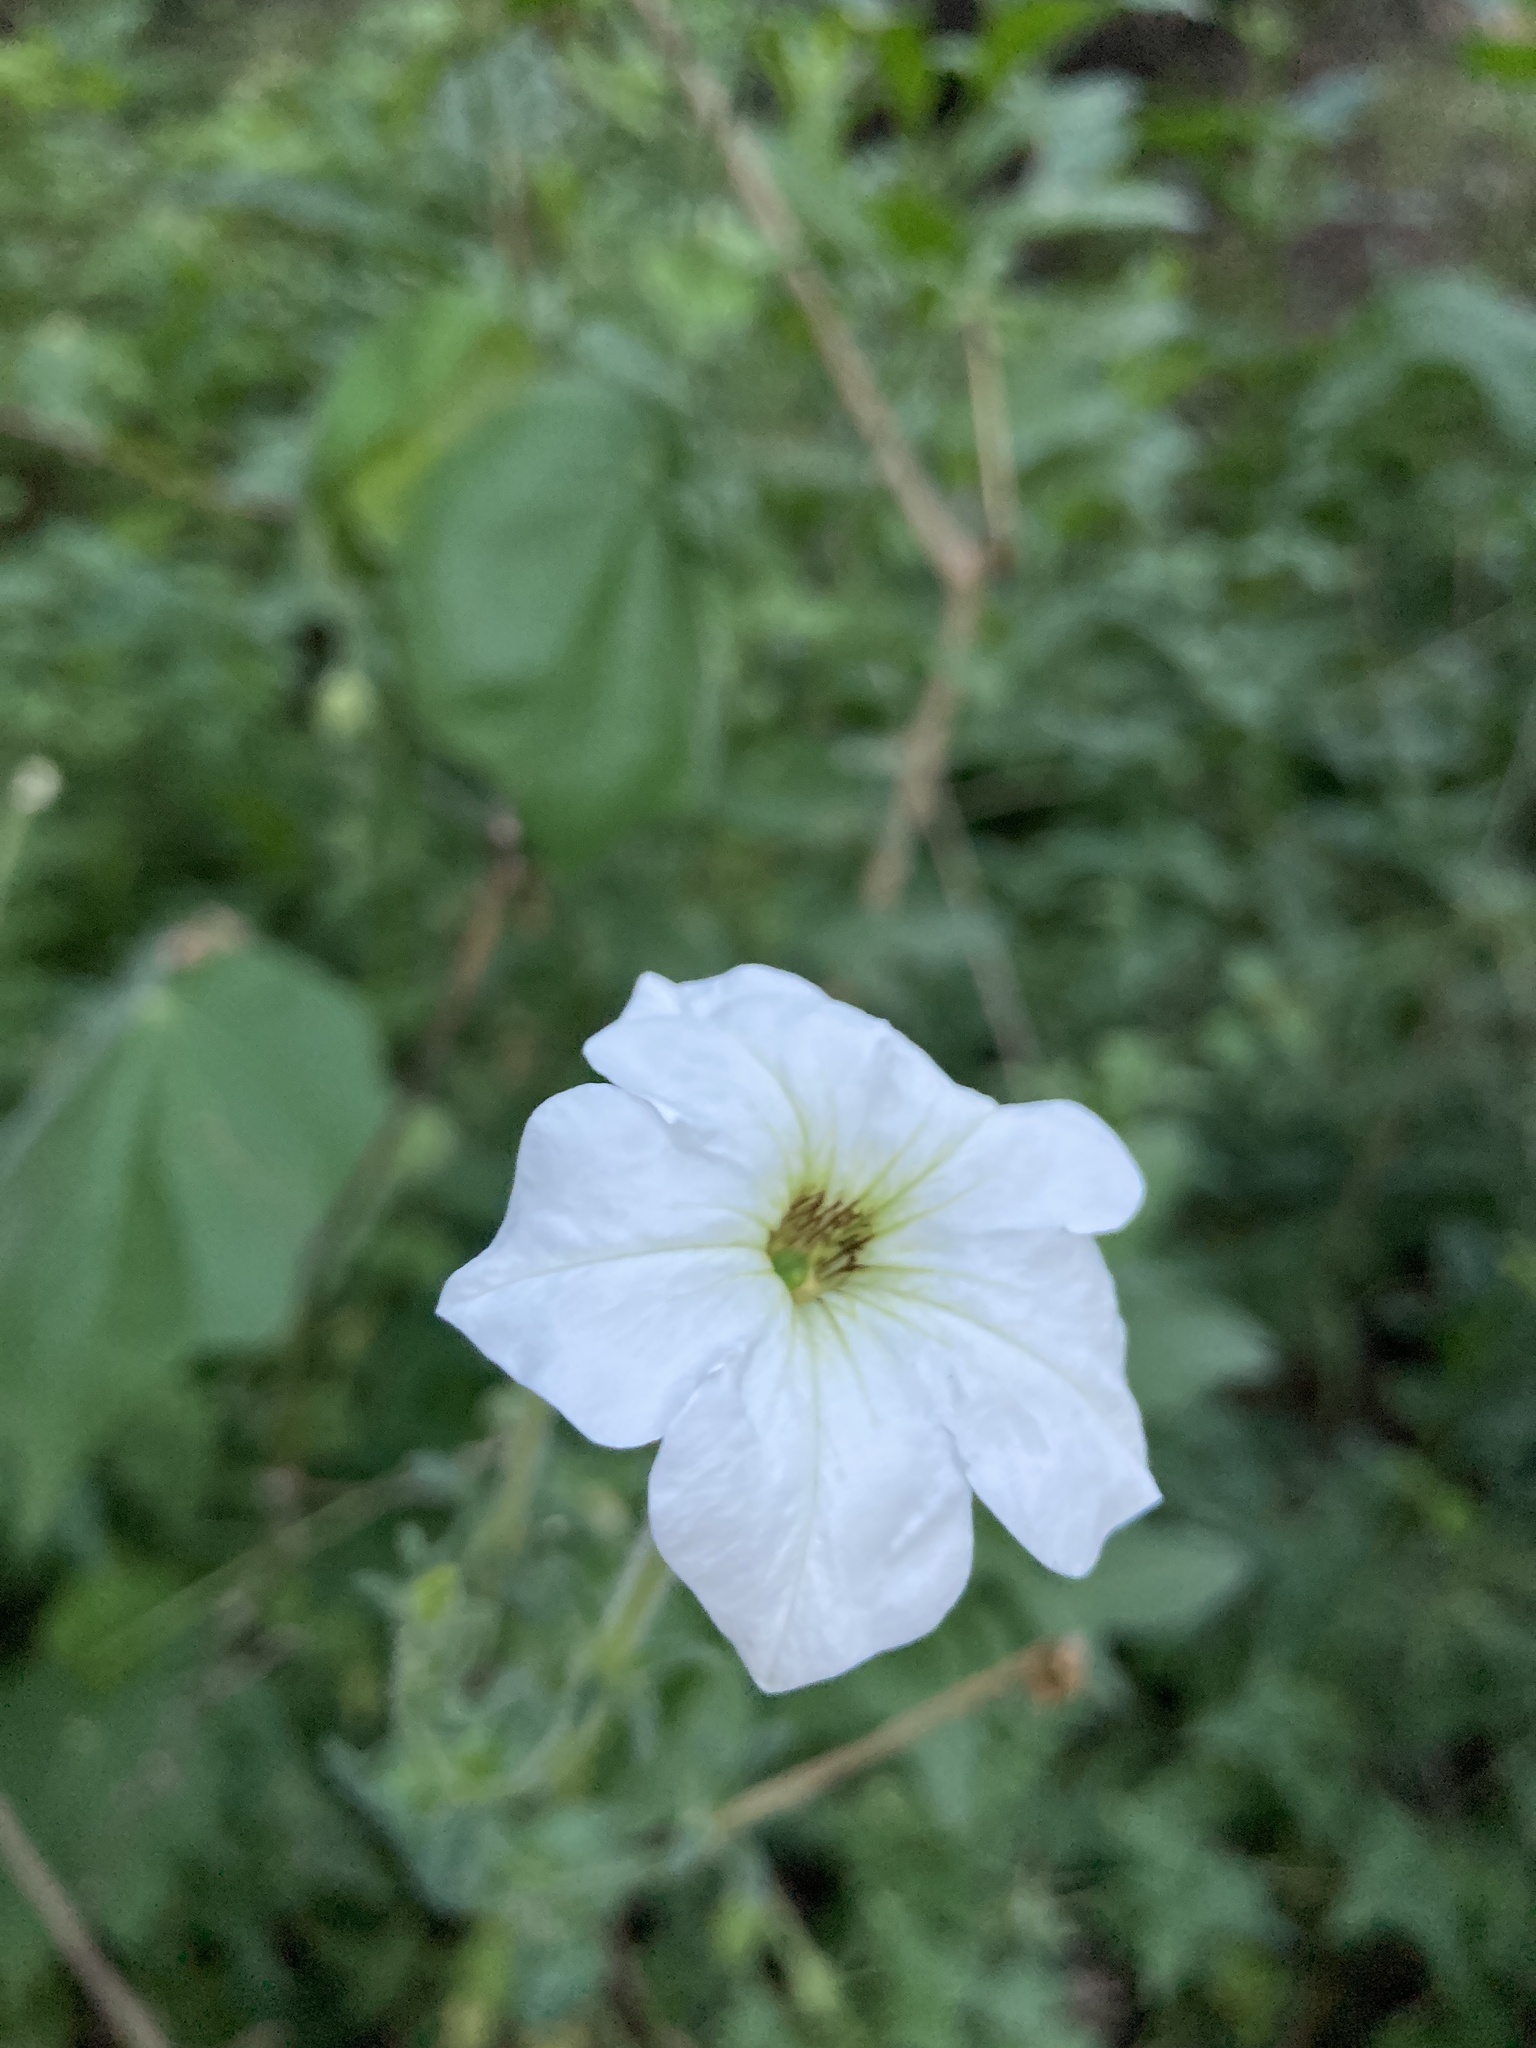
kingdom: Plantae
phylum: Tracheophyta
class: Magnoliopsida
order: Solanales
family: Solanaceae
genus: Petunia
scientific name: Petunia axillaris
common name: Large white petunia
